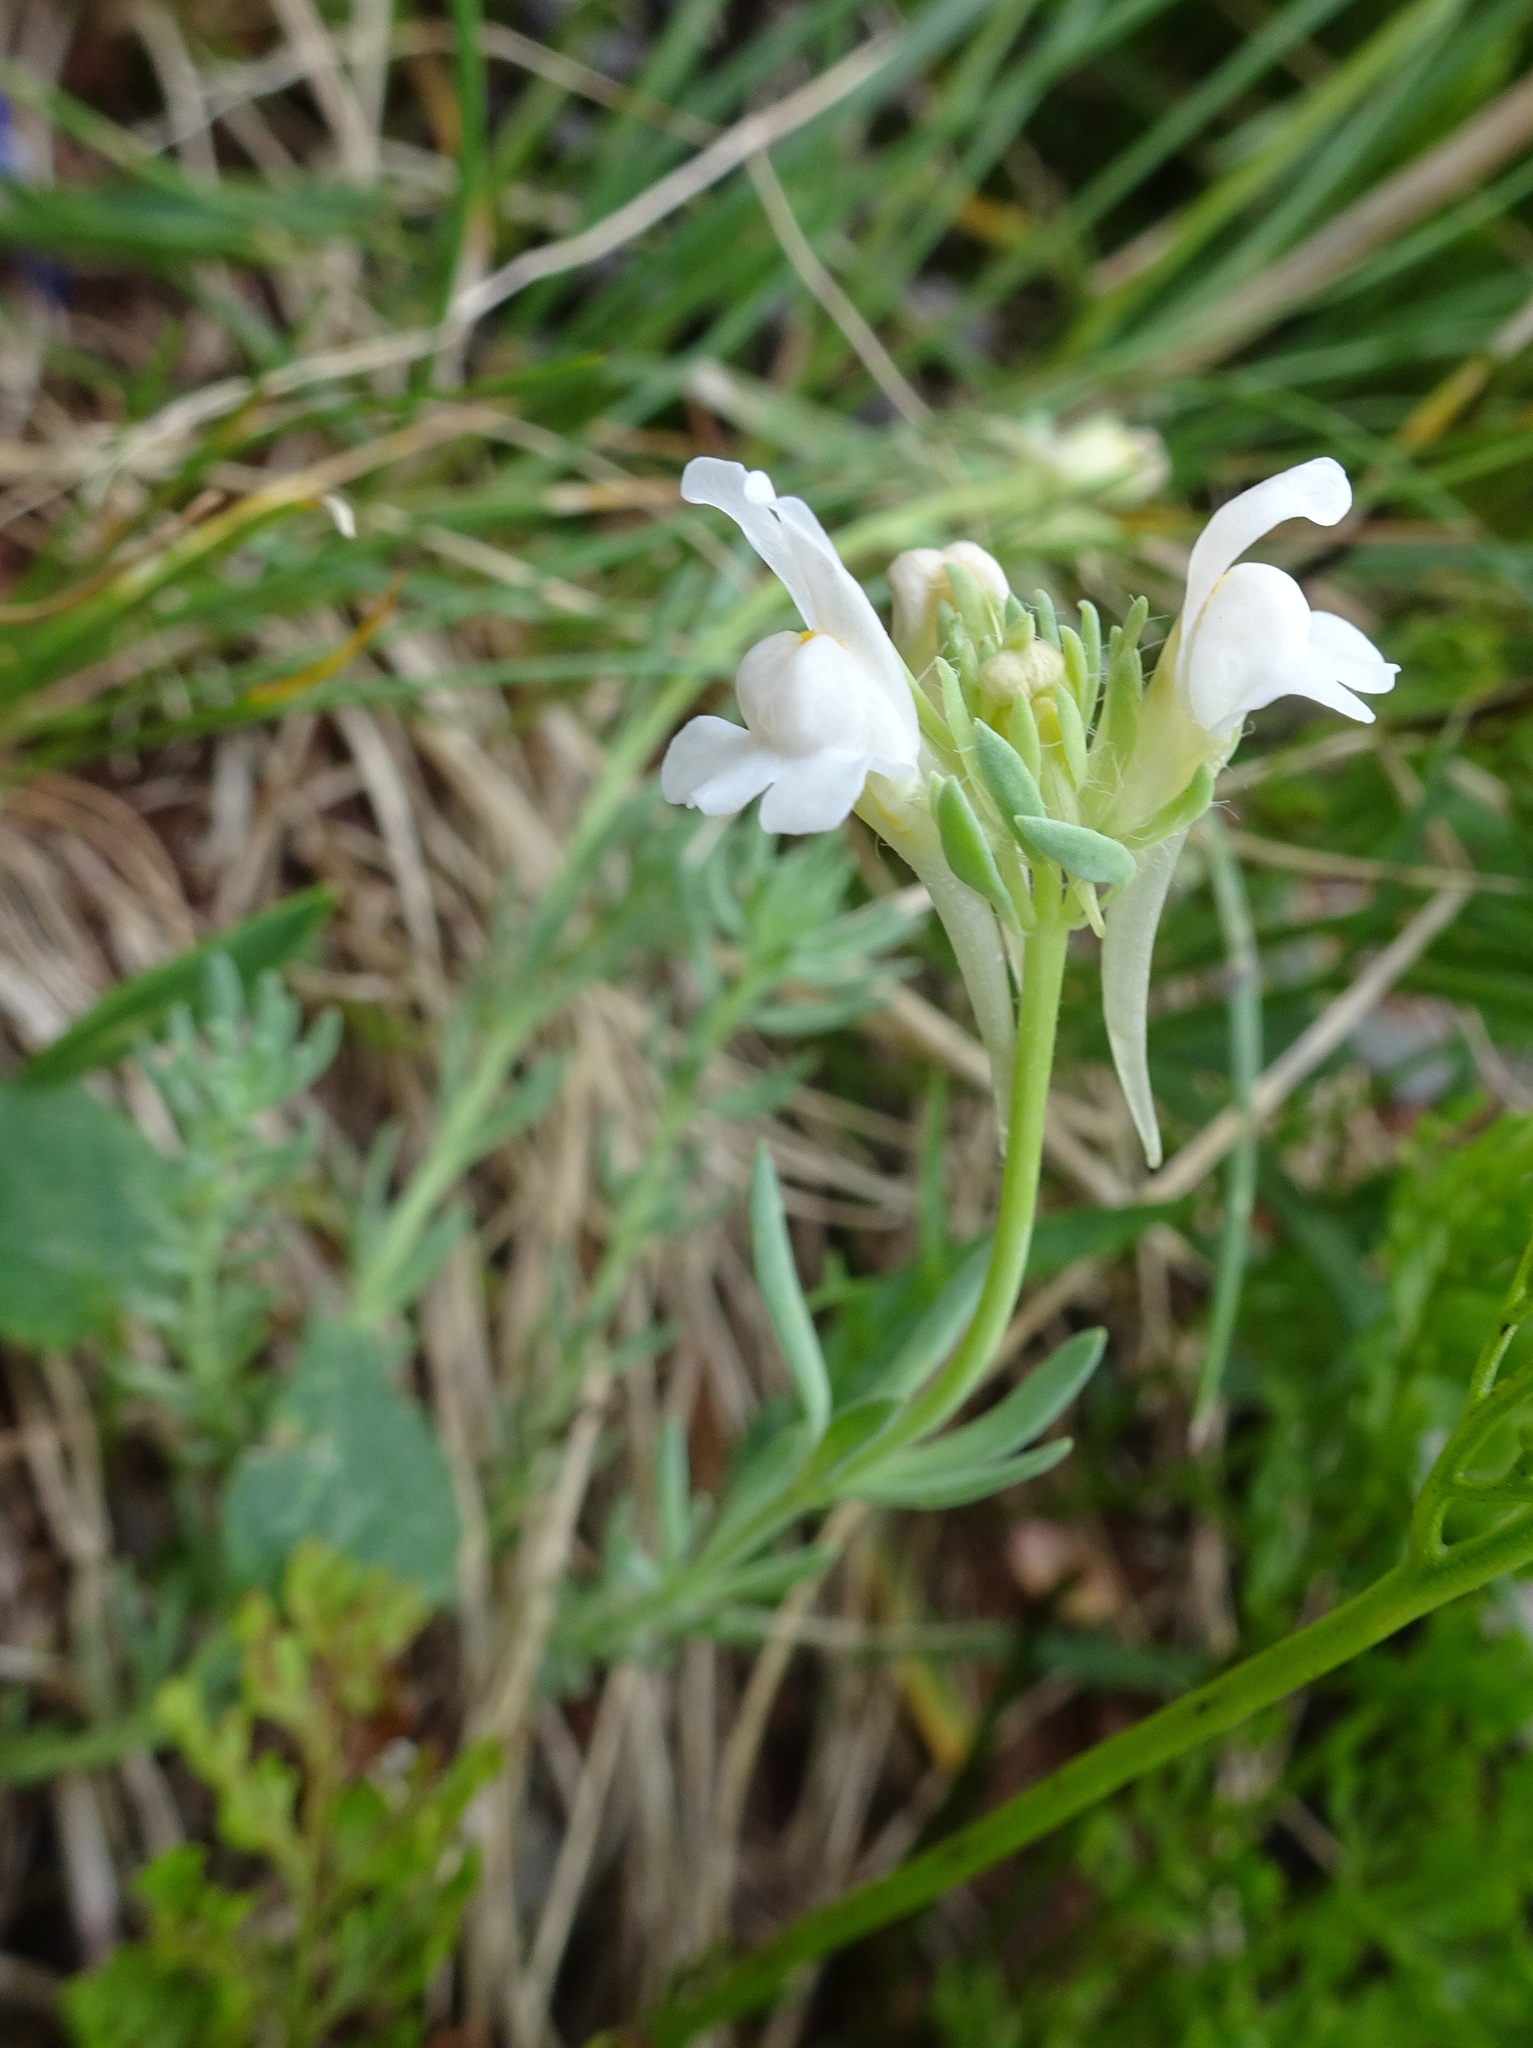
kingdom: Plantae
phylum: Tracheophyta
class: Magnoliopsida
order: Lamiales
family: Plantaginaceae
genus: Linaria
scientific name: Linaria alpina
